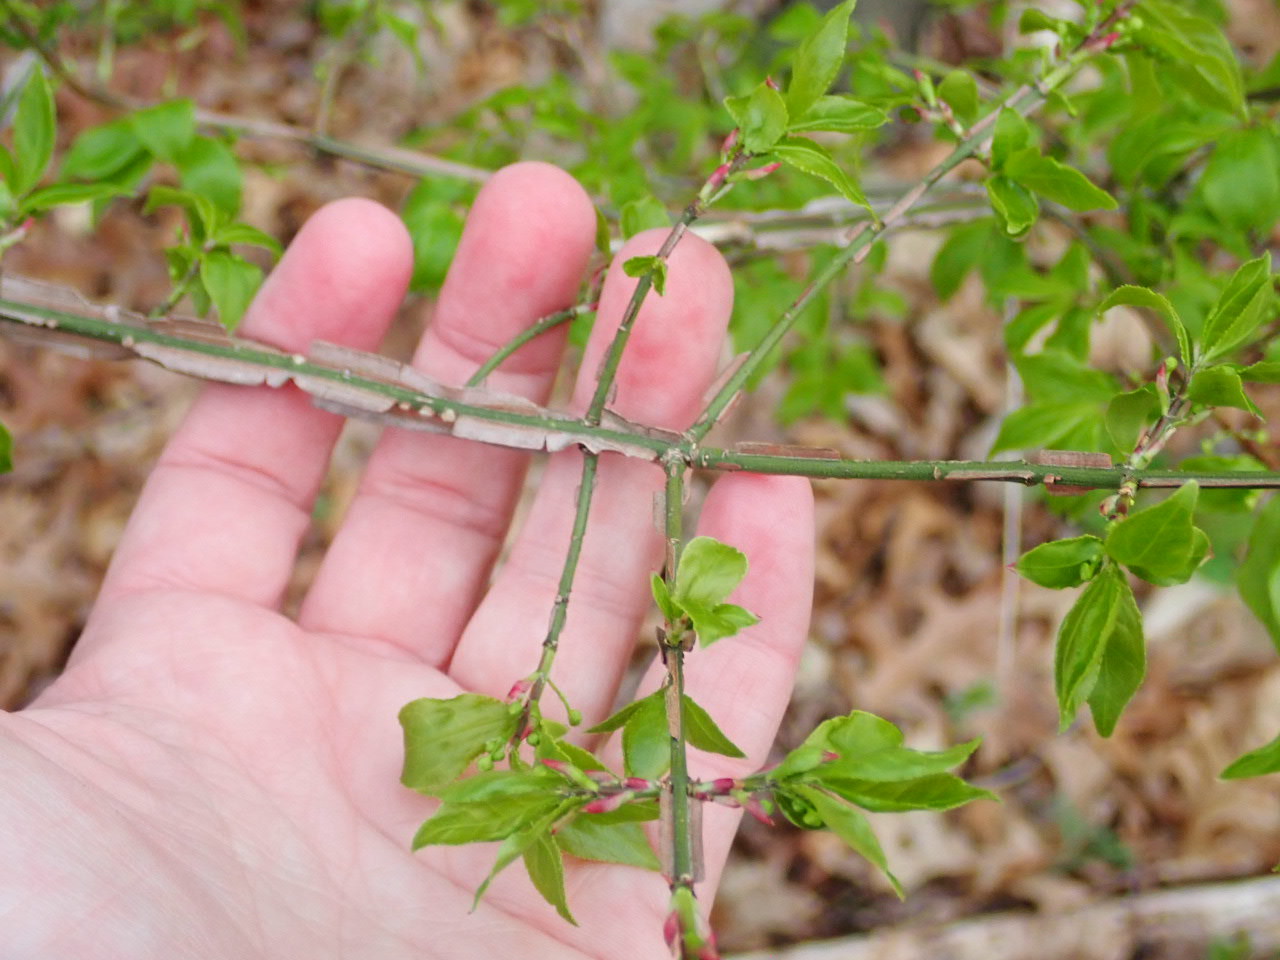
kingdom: Plantae
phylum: Tracheophyta
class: Magnoliopsida
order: Celastrales
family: Celastraceae
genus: Euonymus
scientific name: Euonymus alatus
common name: Winged euonymus
